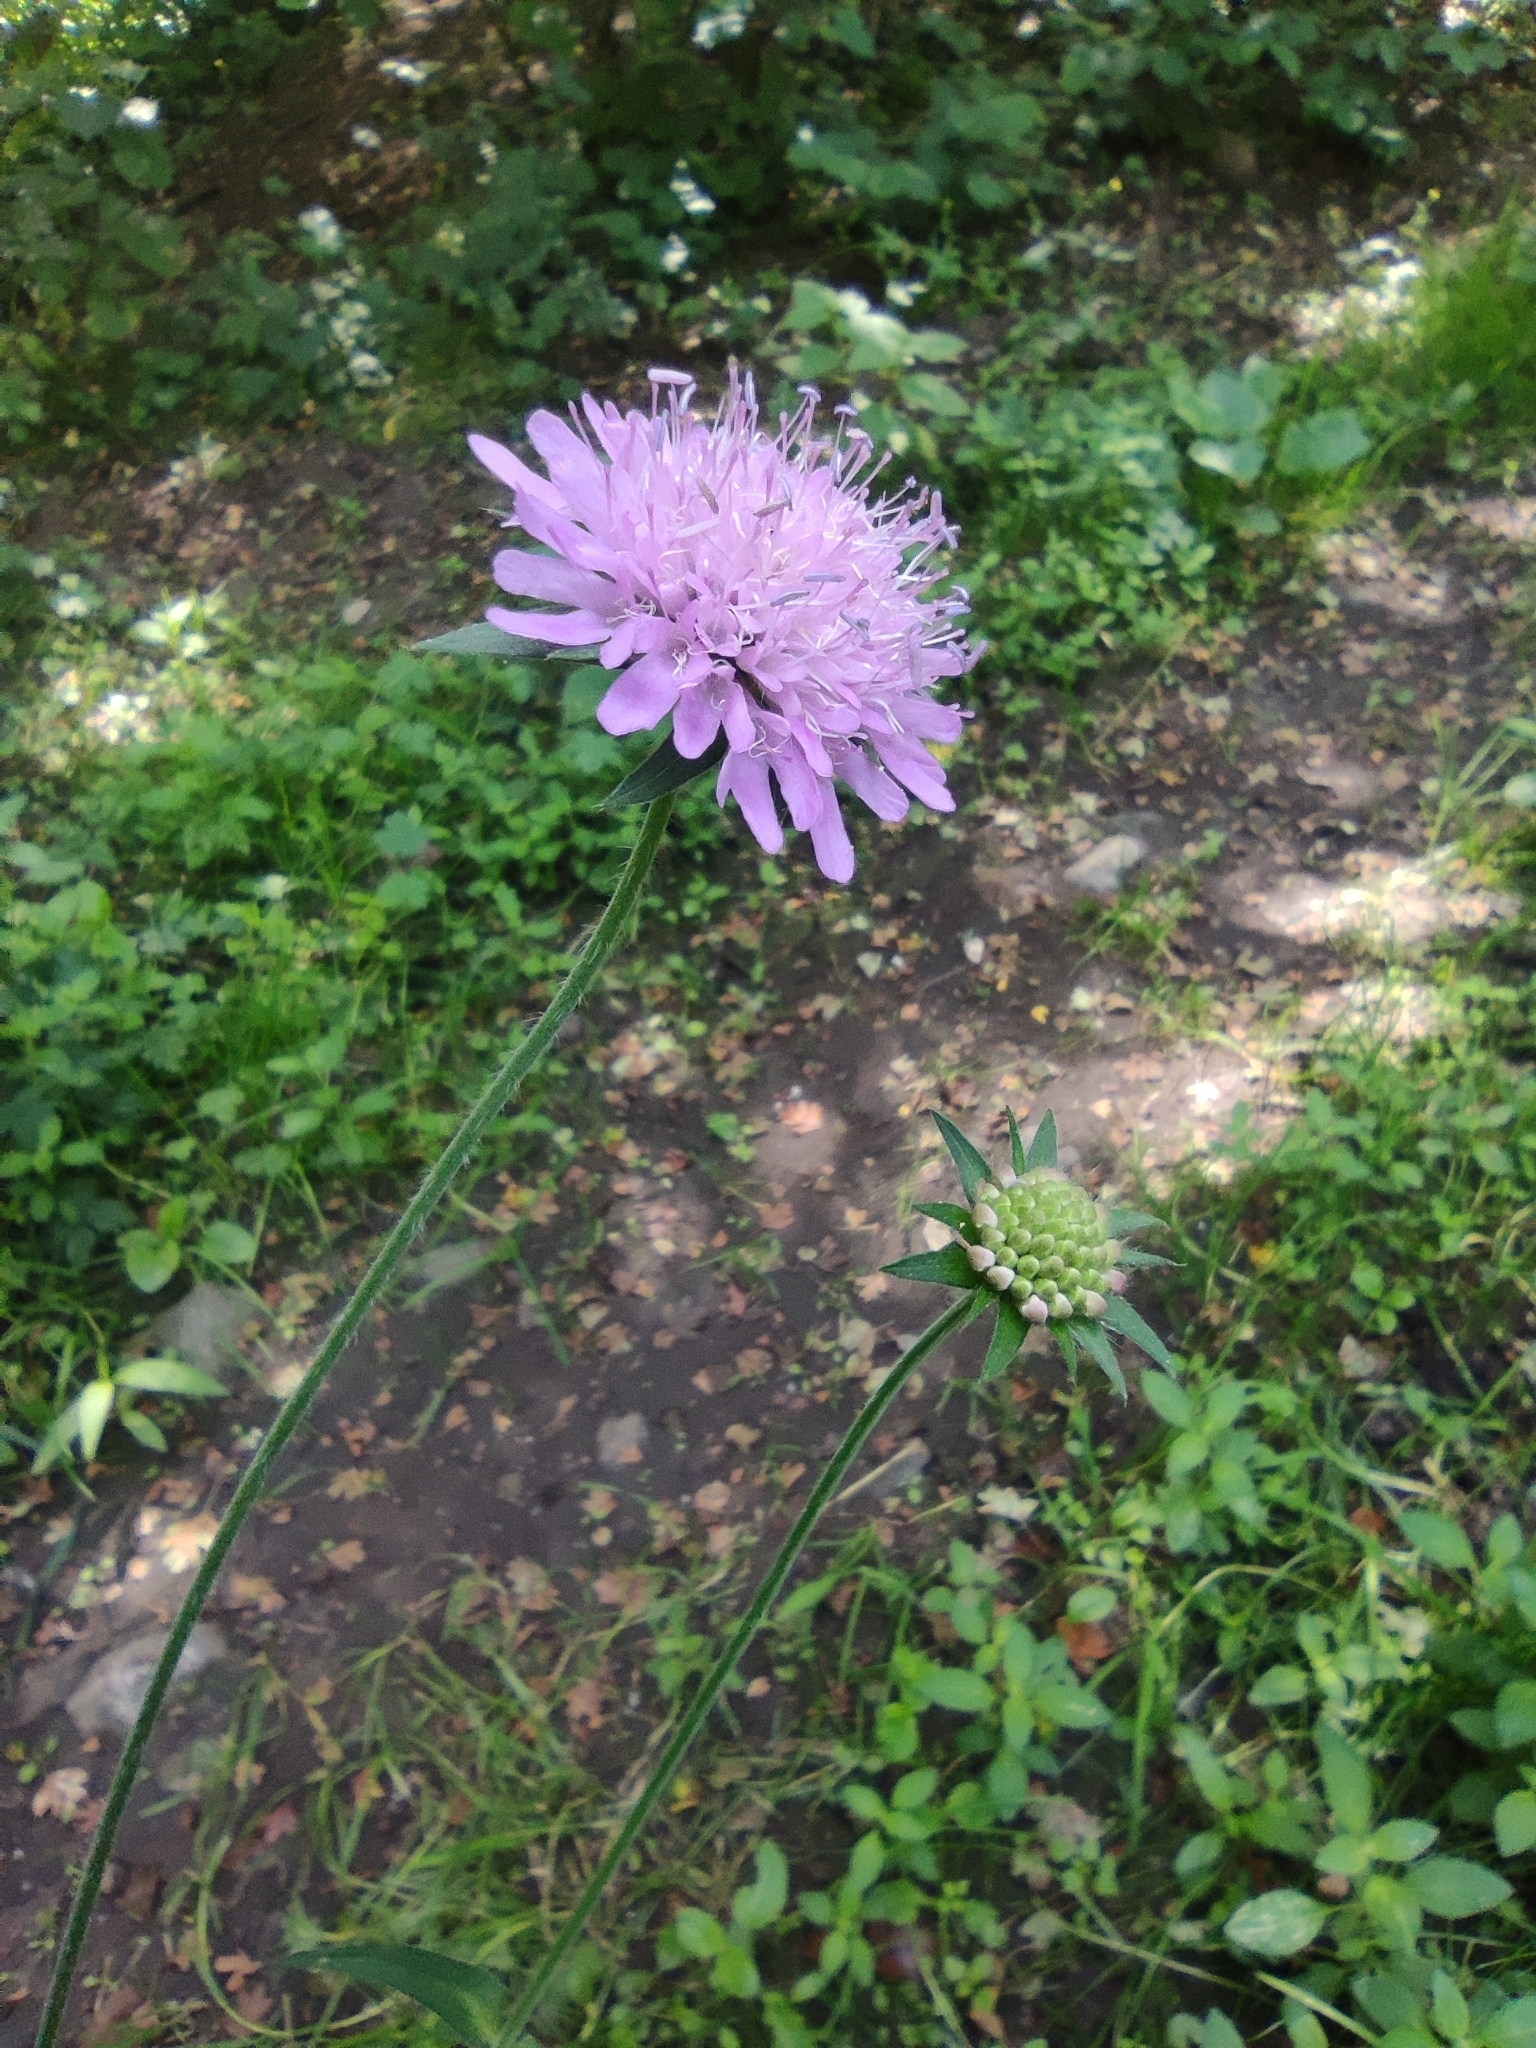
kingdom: Plantae
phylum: Tracheophyta
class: Magnoliopsida
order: Dipsacales
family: Caprifoliaceae
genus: Knautia
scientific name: Knautia arvensis
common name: Field scabiosa
